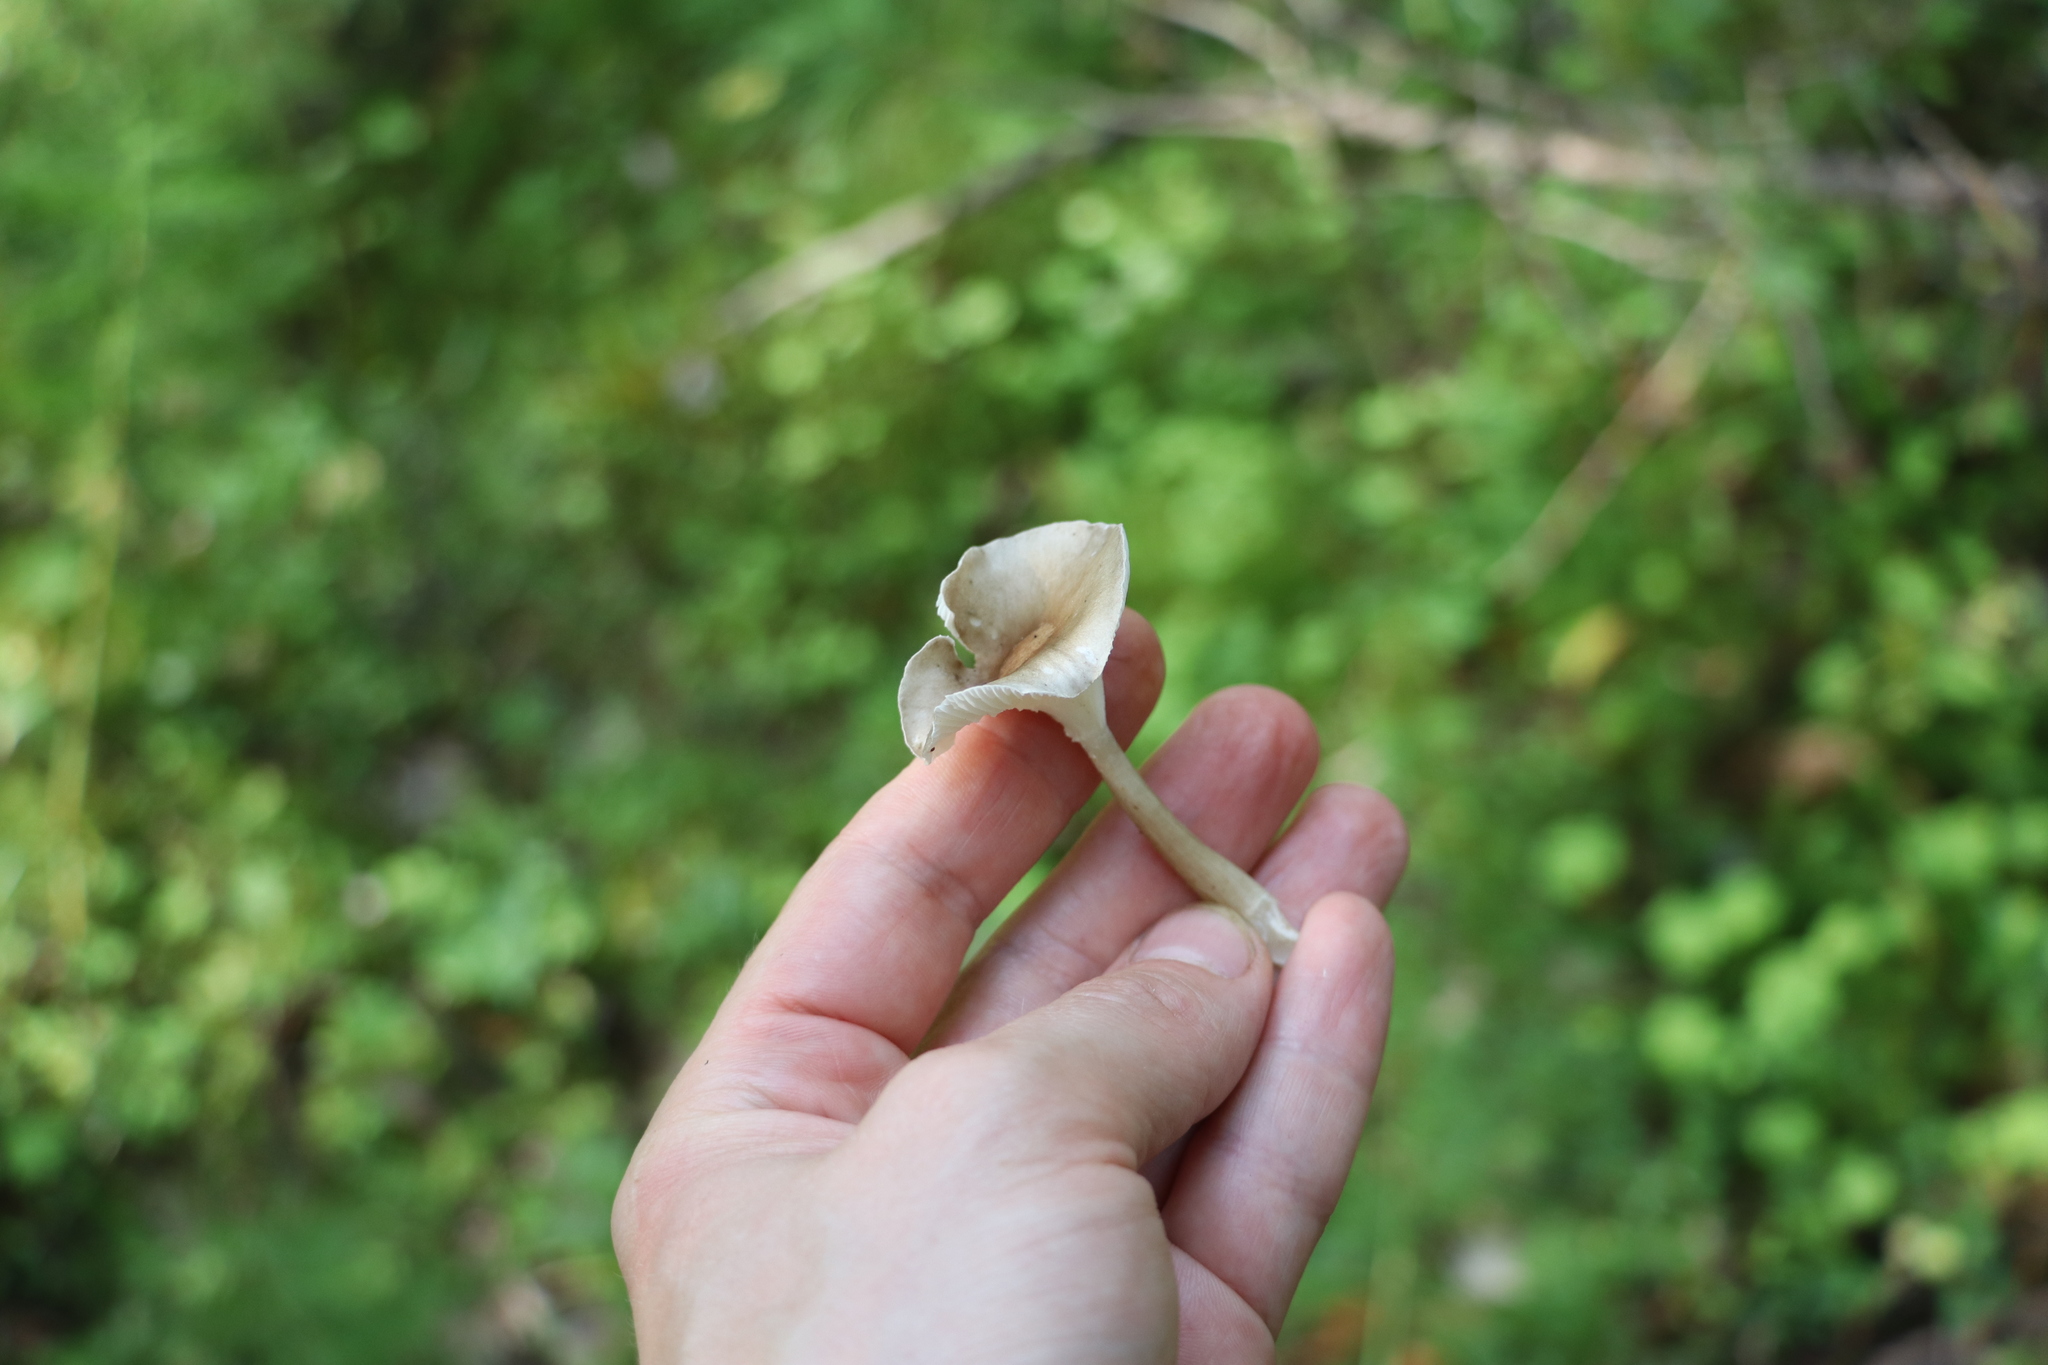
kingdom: Fungi
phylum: Basidiomycota
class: Agaricomycetes
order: Agaricales
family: Hygrophoraceae
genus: Ampulloclitocybe
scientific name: Ampulloclitocybe clavipes
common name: Club foot
